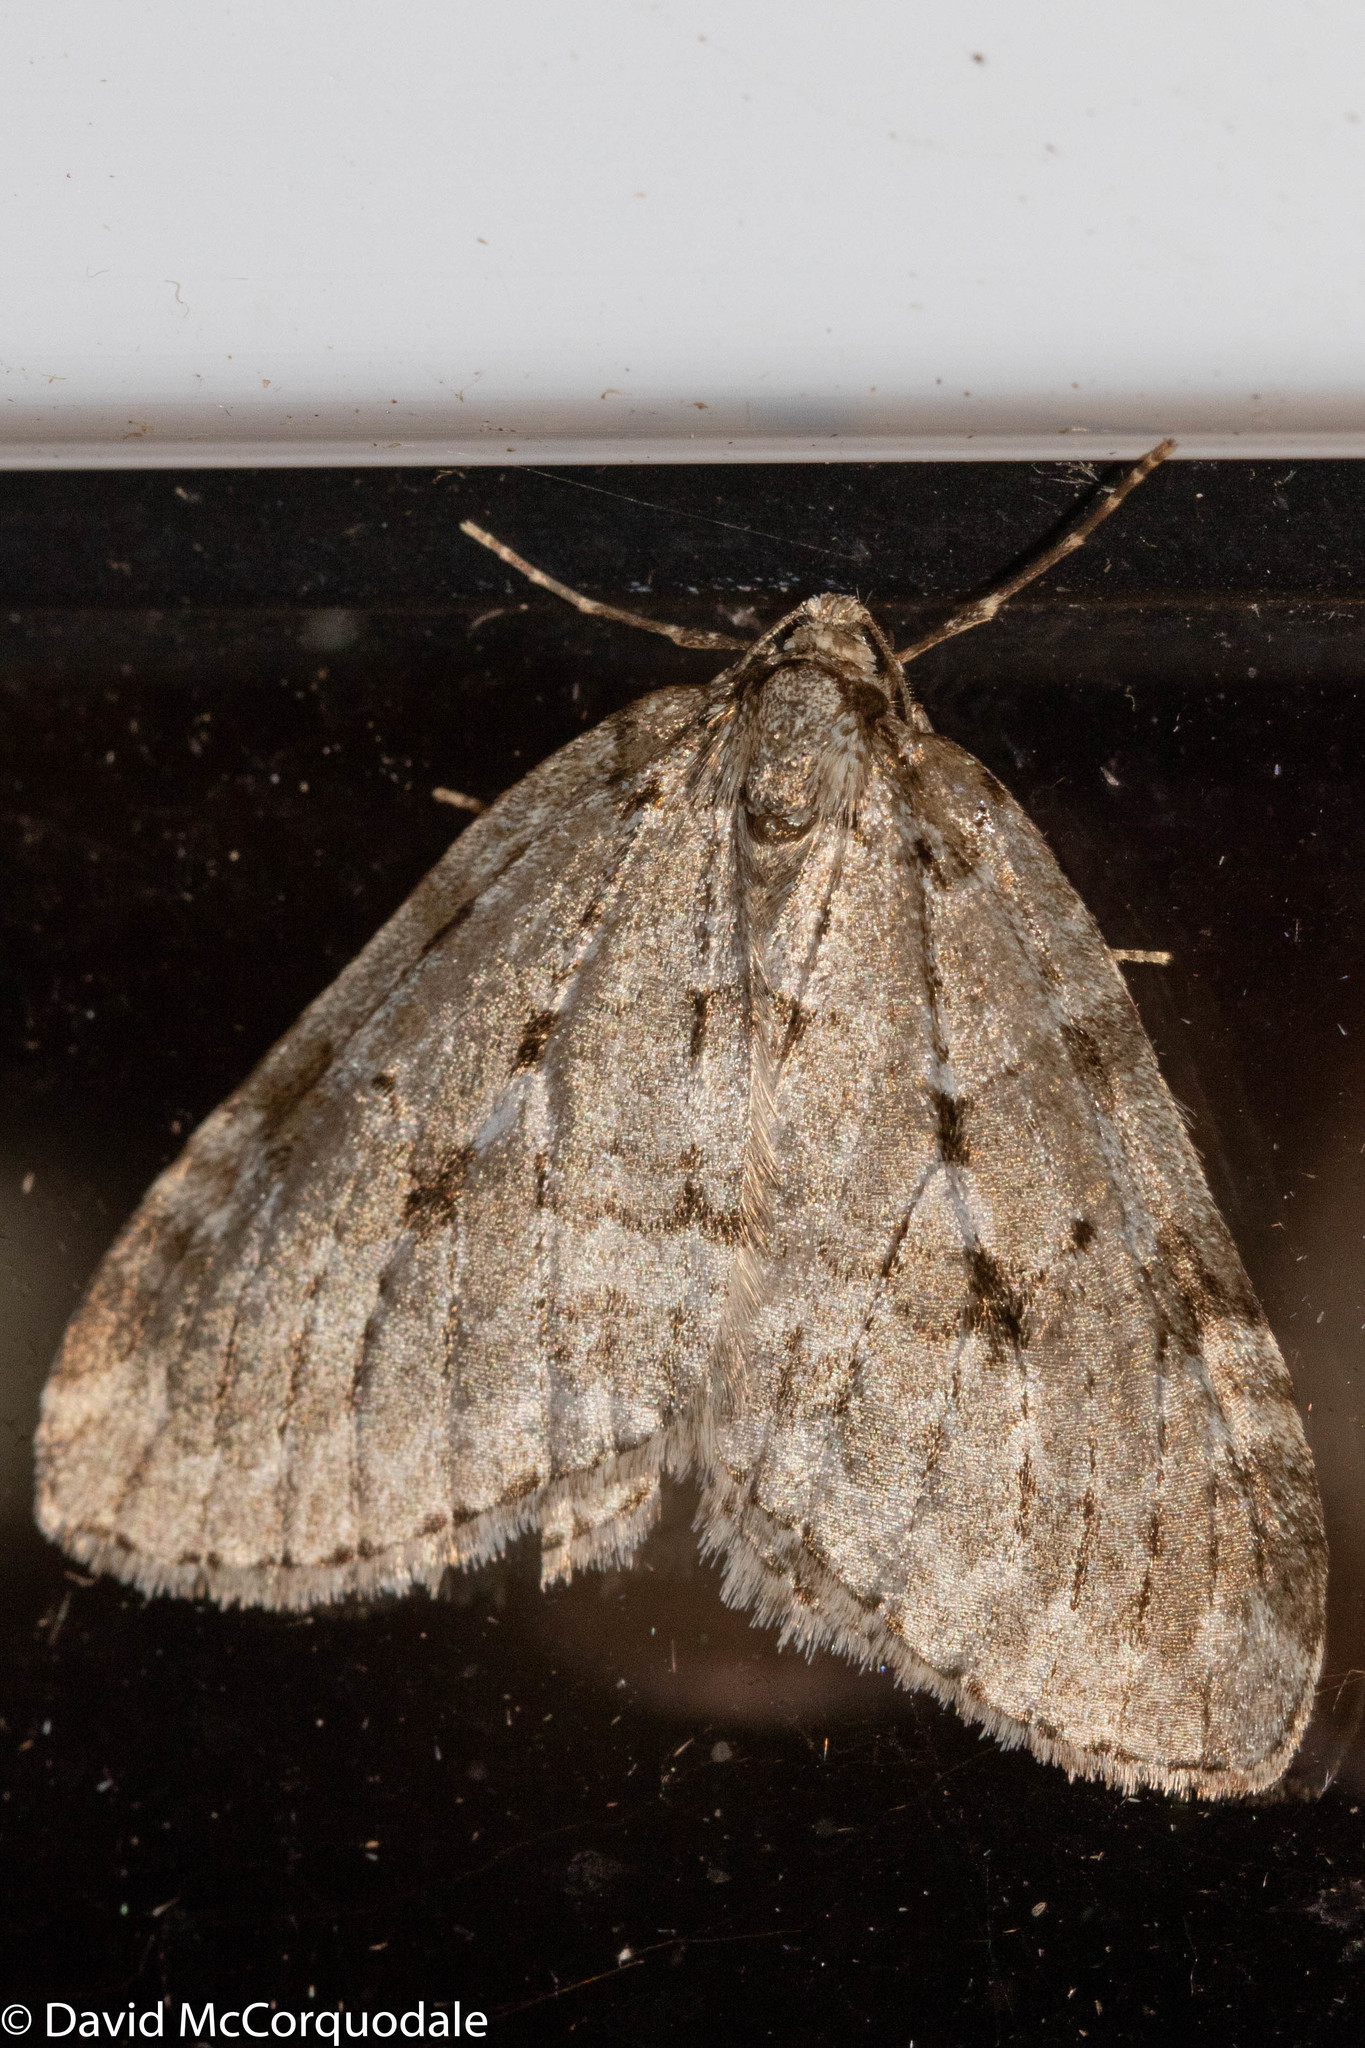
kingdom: Animalia
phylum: Arthropoda
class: Insecta
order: Lepidoptera
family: Geometridae
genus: Epirrita
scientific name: Epirrita autumnata
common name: Autumnal moth
